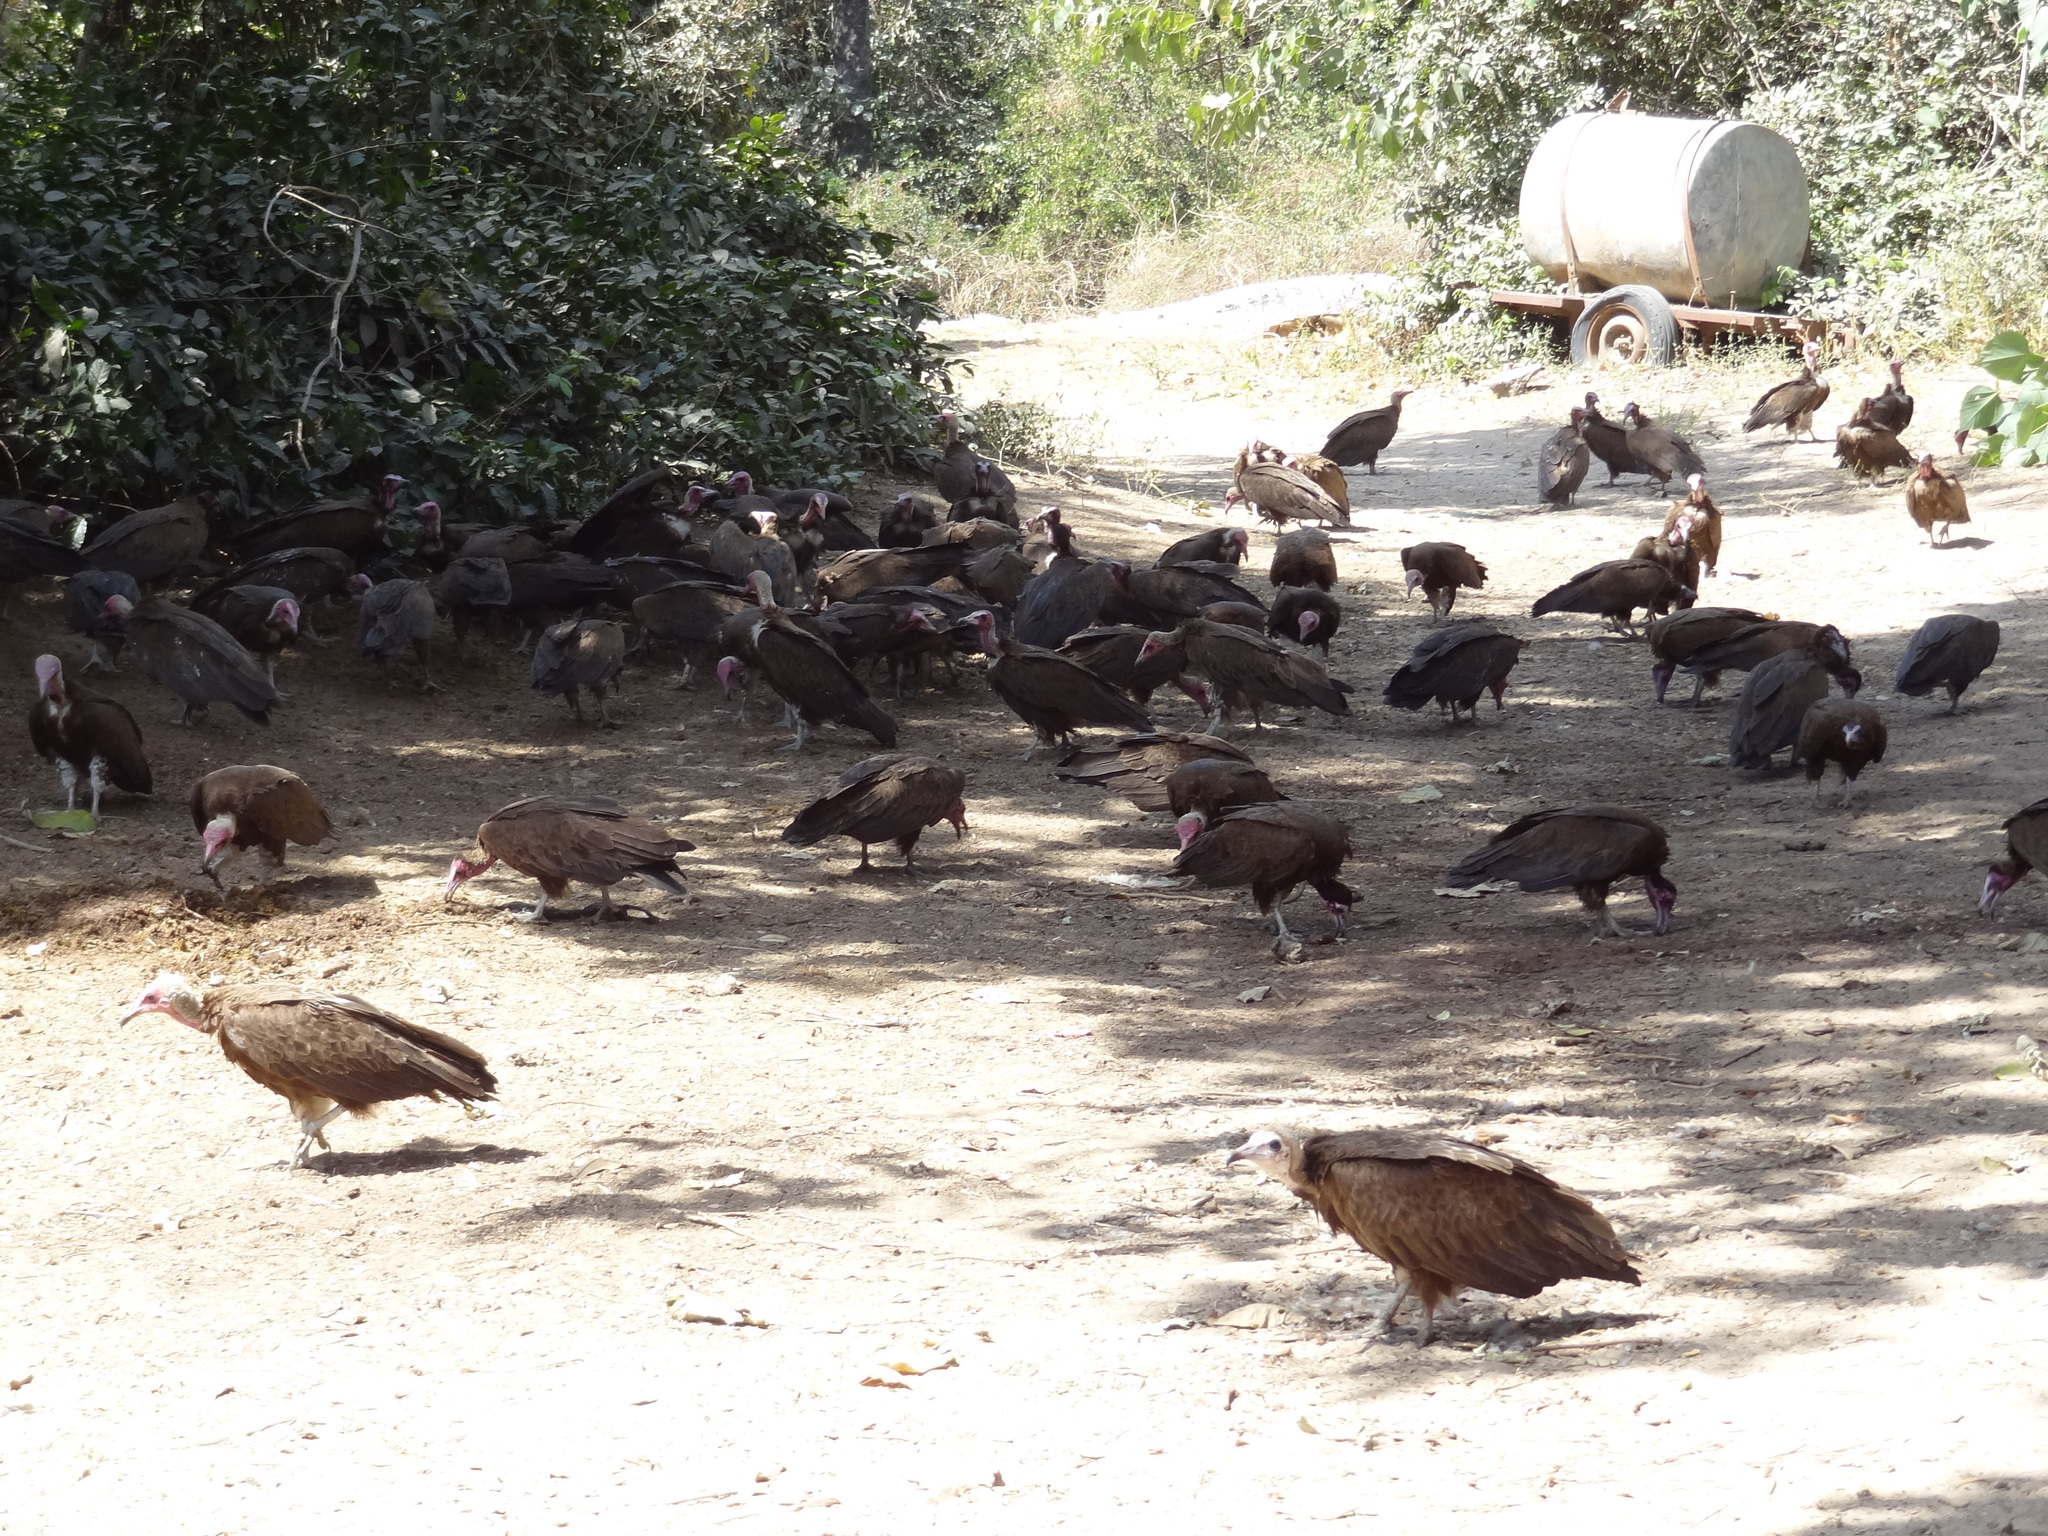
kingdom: Animalia
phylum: Chordata
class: Aves
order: Accipitriformes
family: Accipitridae
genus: Necrosyrtes
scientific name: Necrosyrtes monachus
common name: Hooded vulture
